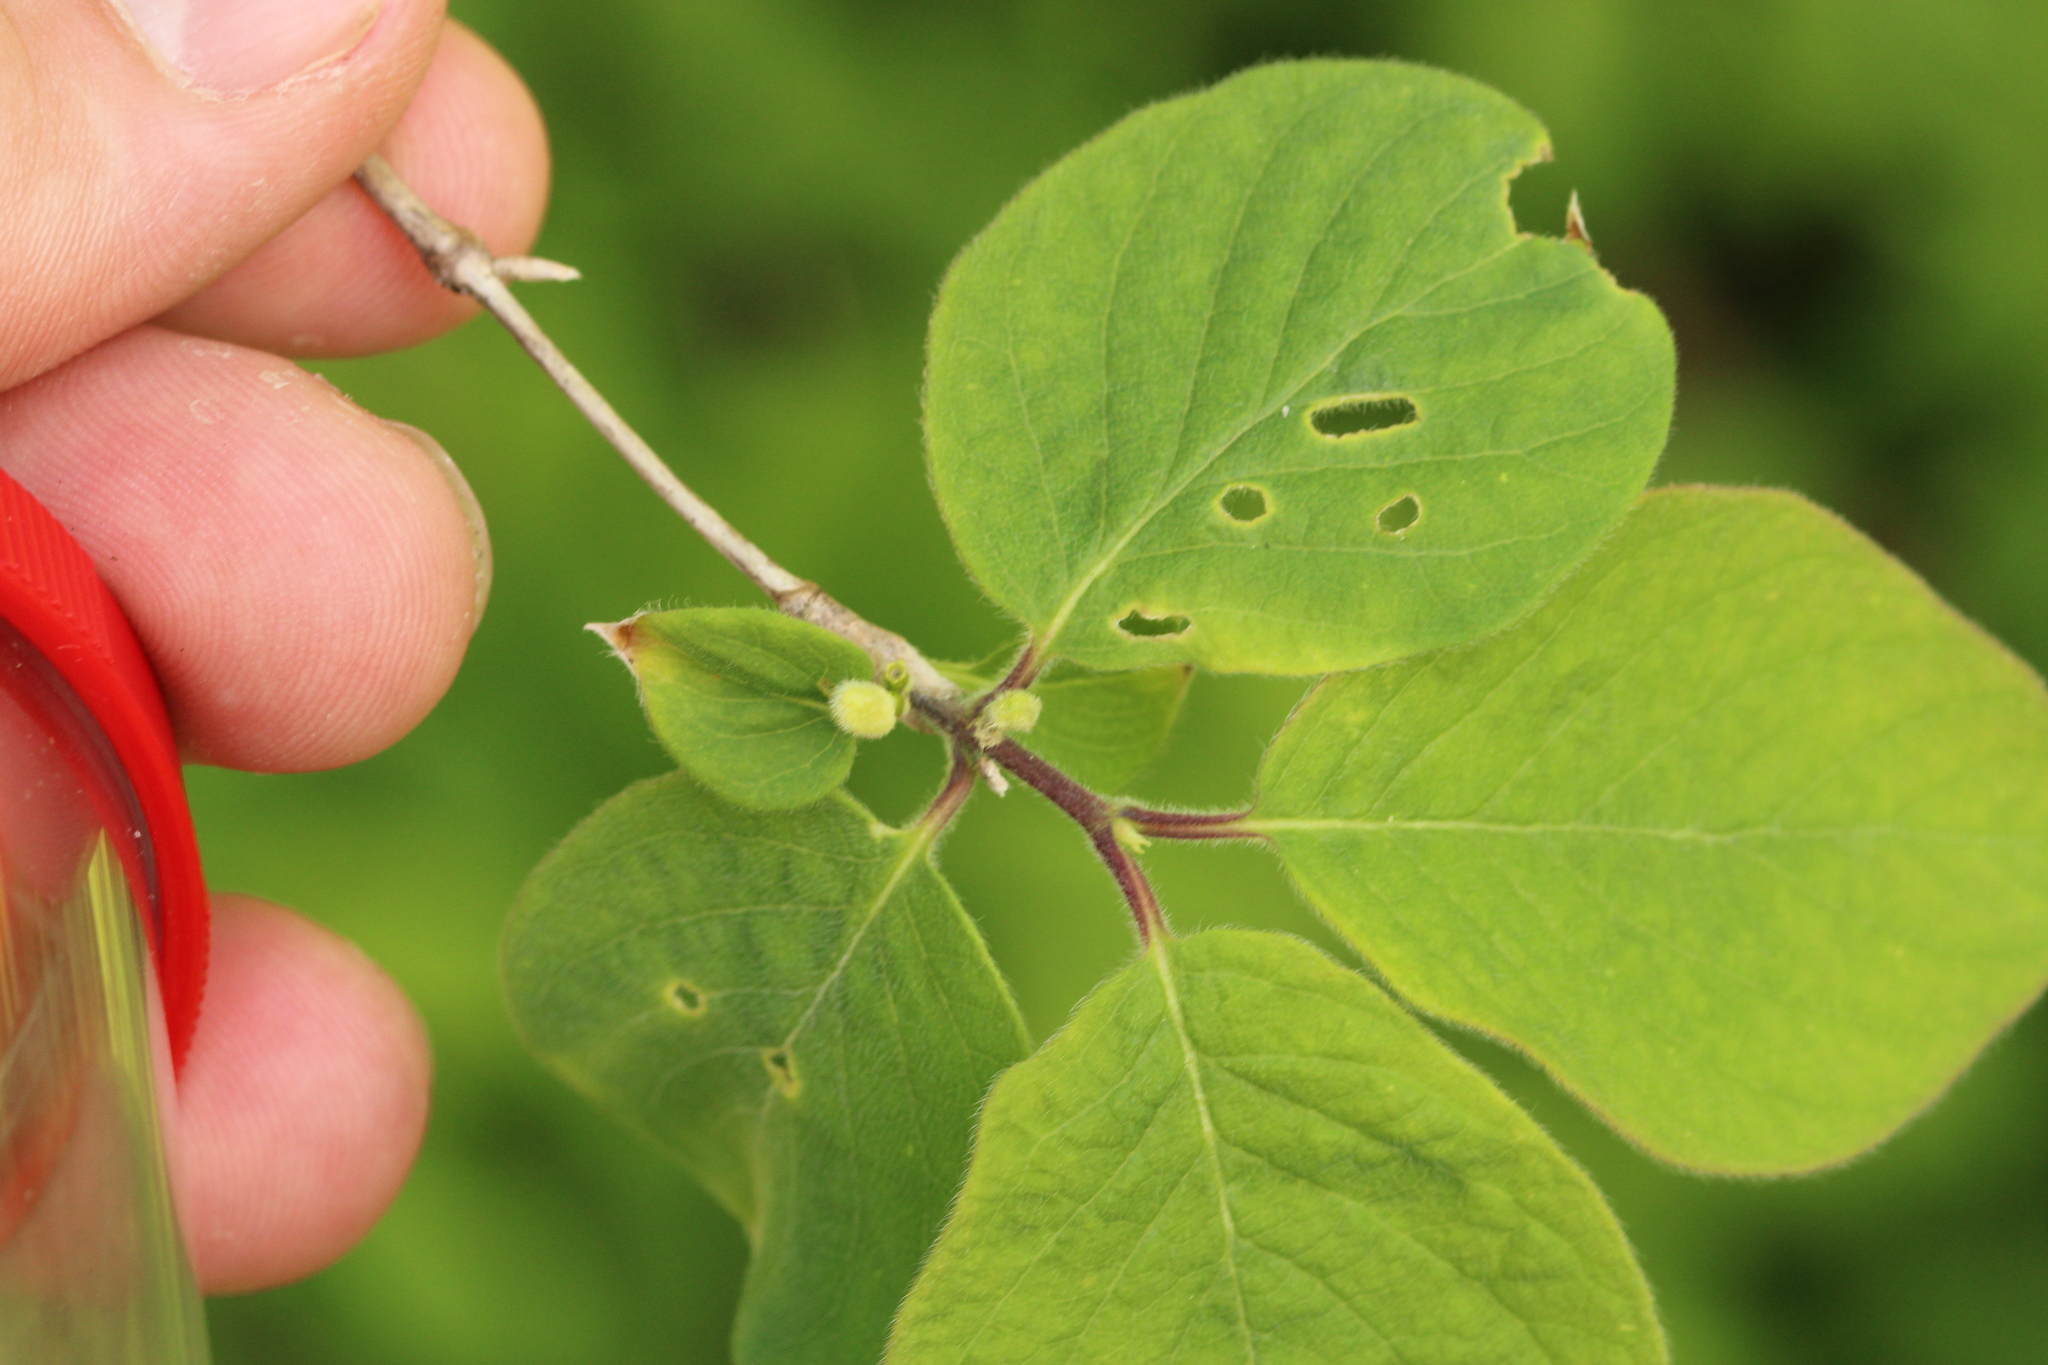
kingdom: Plantae
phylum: Tracheophyta
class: Magnoliopsida
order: Dipsacales
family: Caprifoliaceae
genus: Lonicera
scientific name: Lonicera xylosteum
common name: Fly honeysuckle
